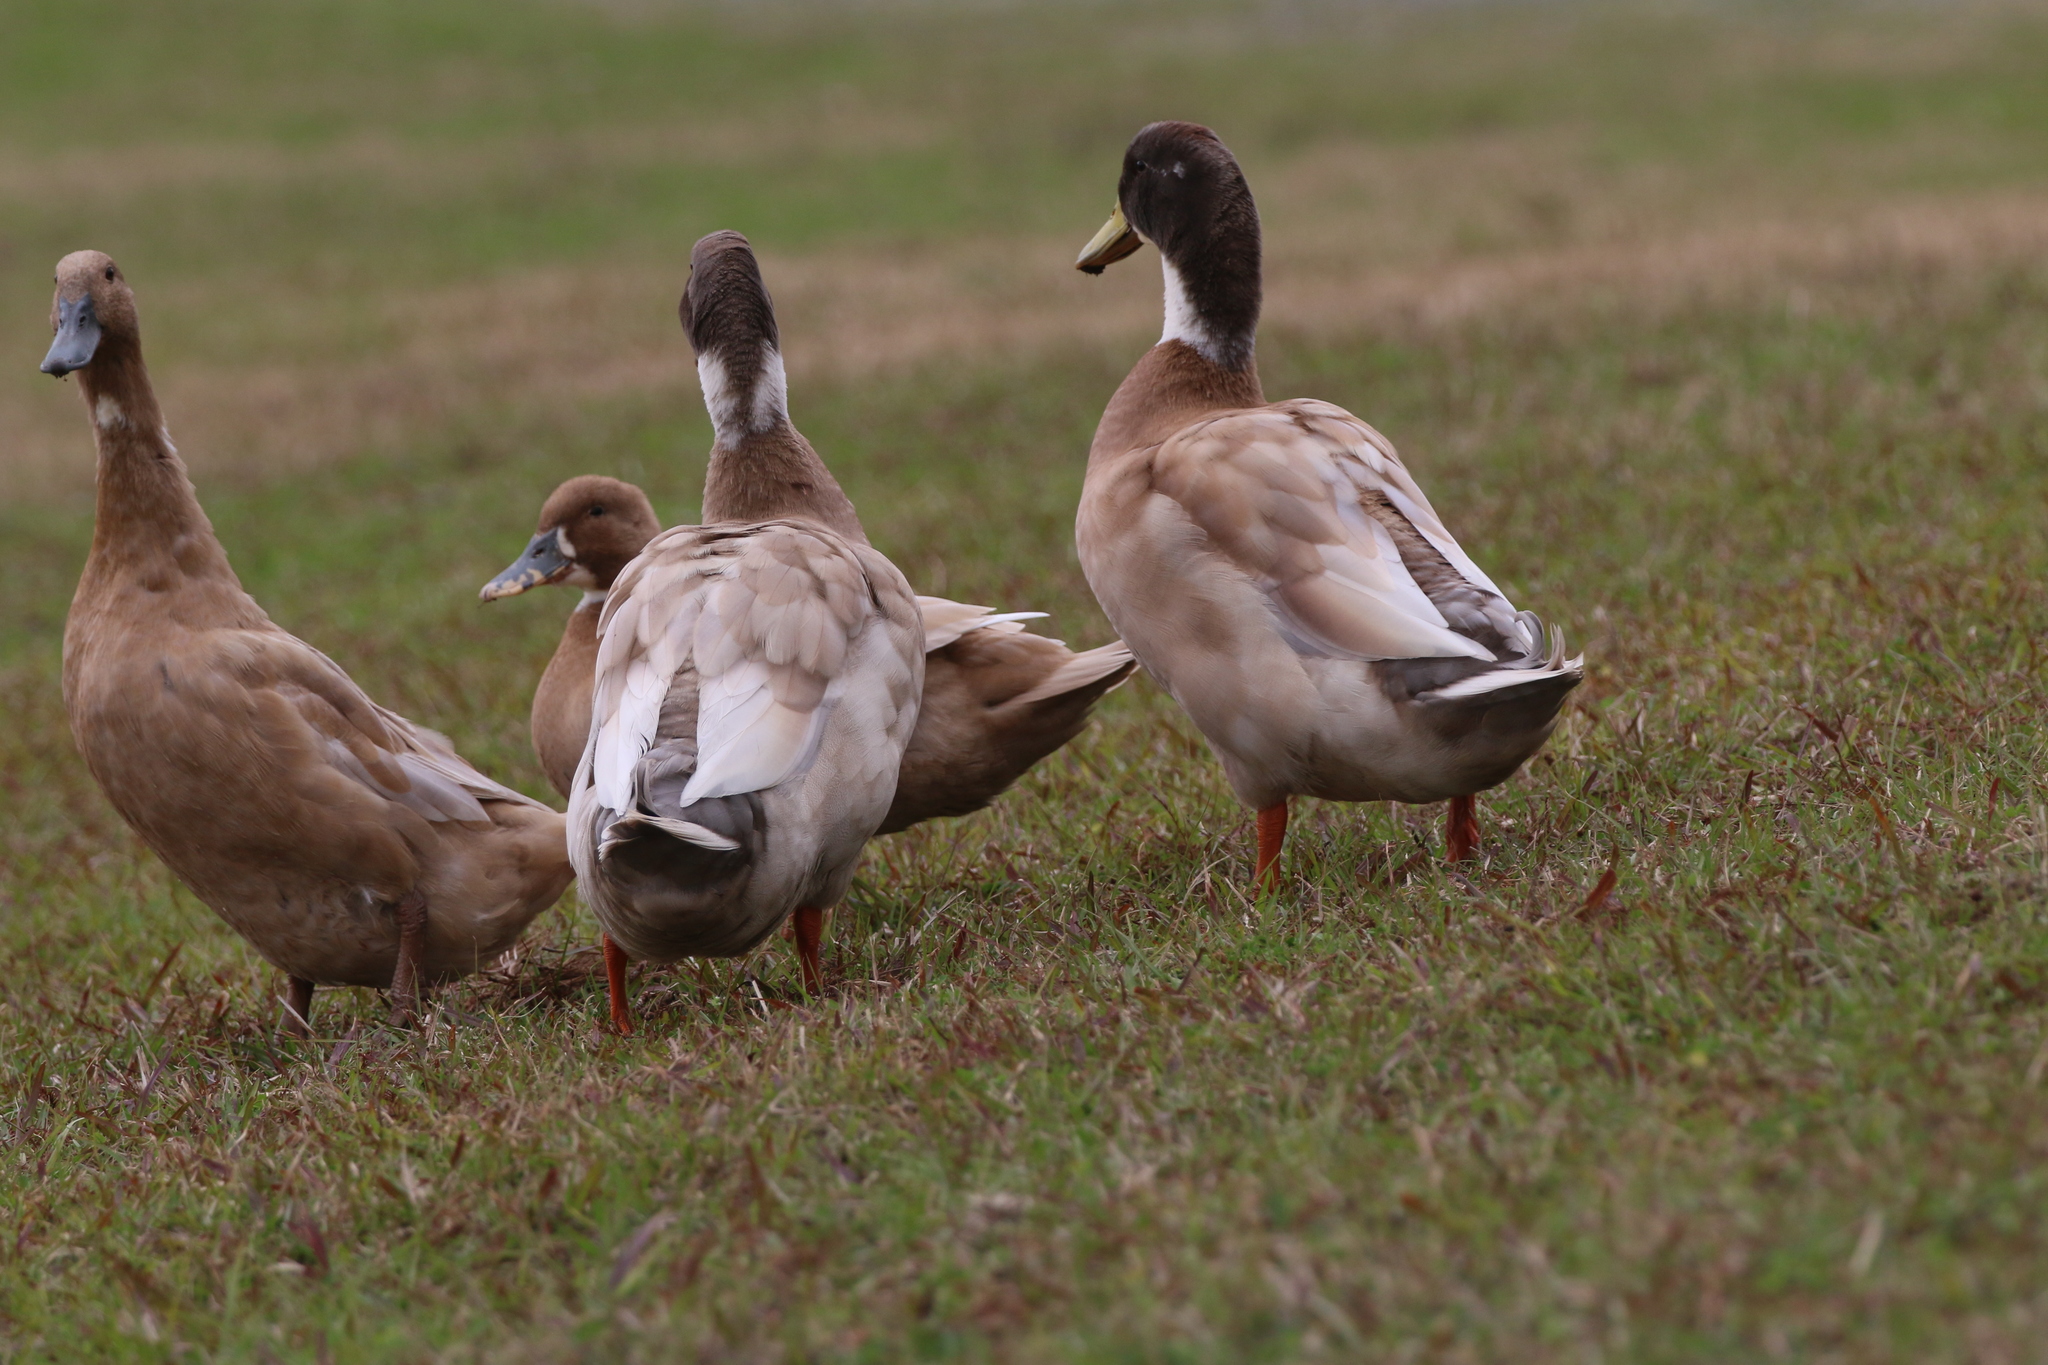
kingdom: Animalia
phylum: Chordata
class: Aves
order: Anseriformes
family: Anatidae
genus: Anas
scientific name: Anas platyrhynchos
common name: Mallard
